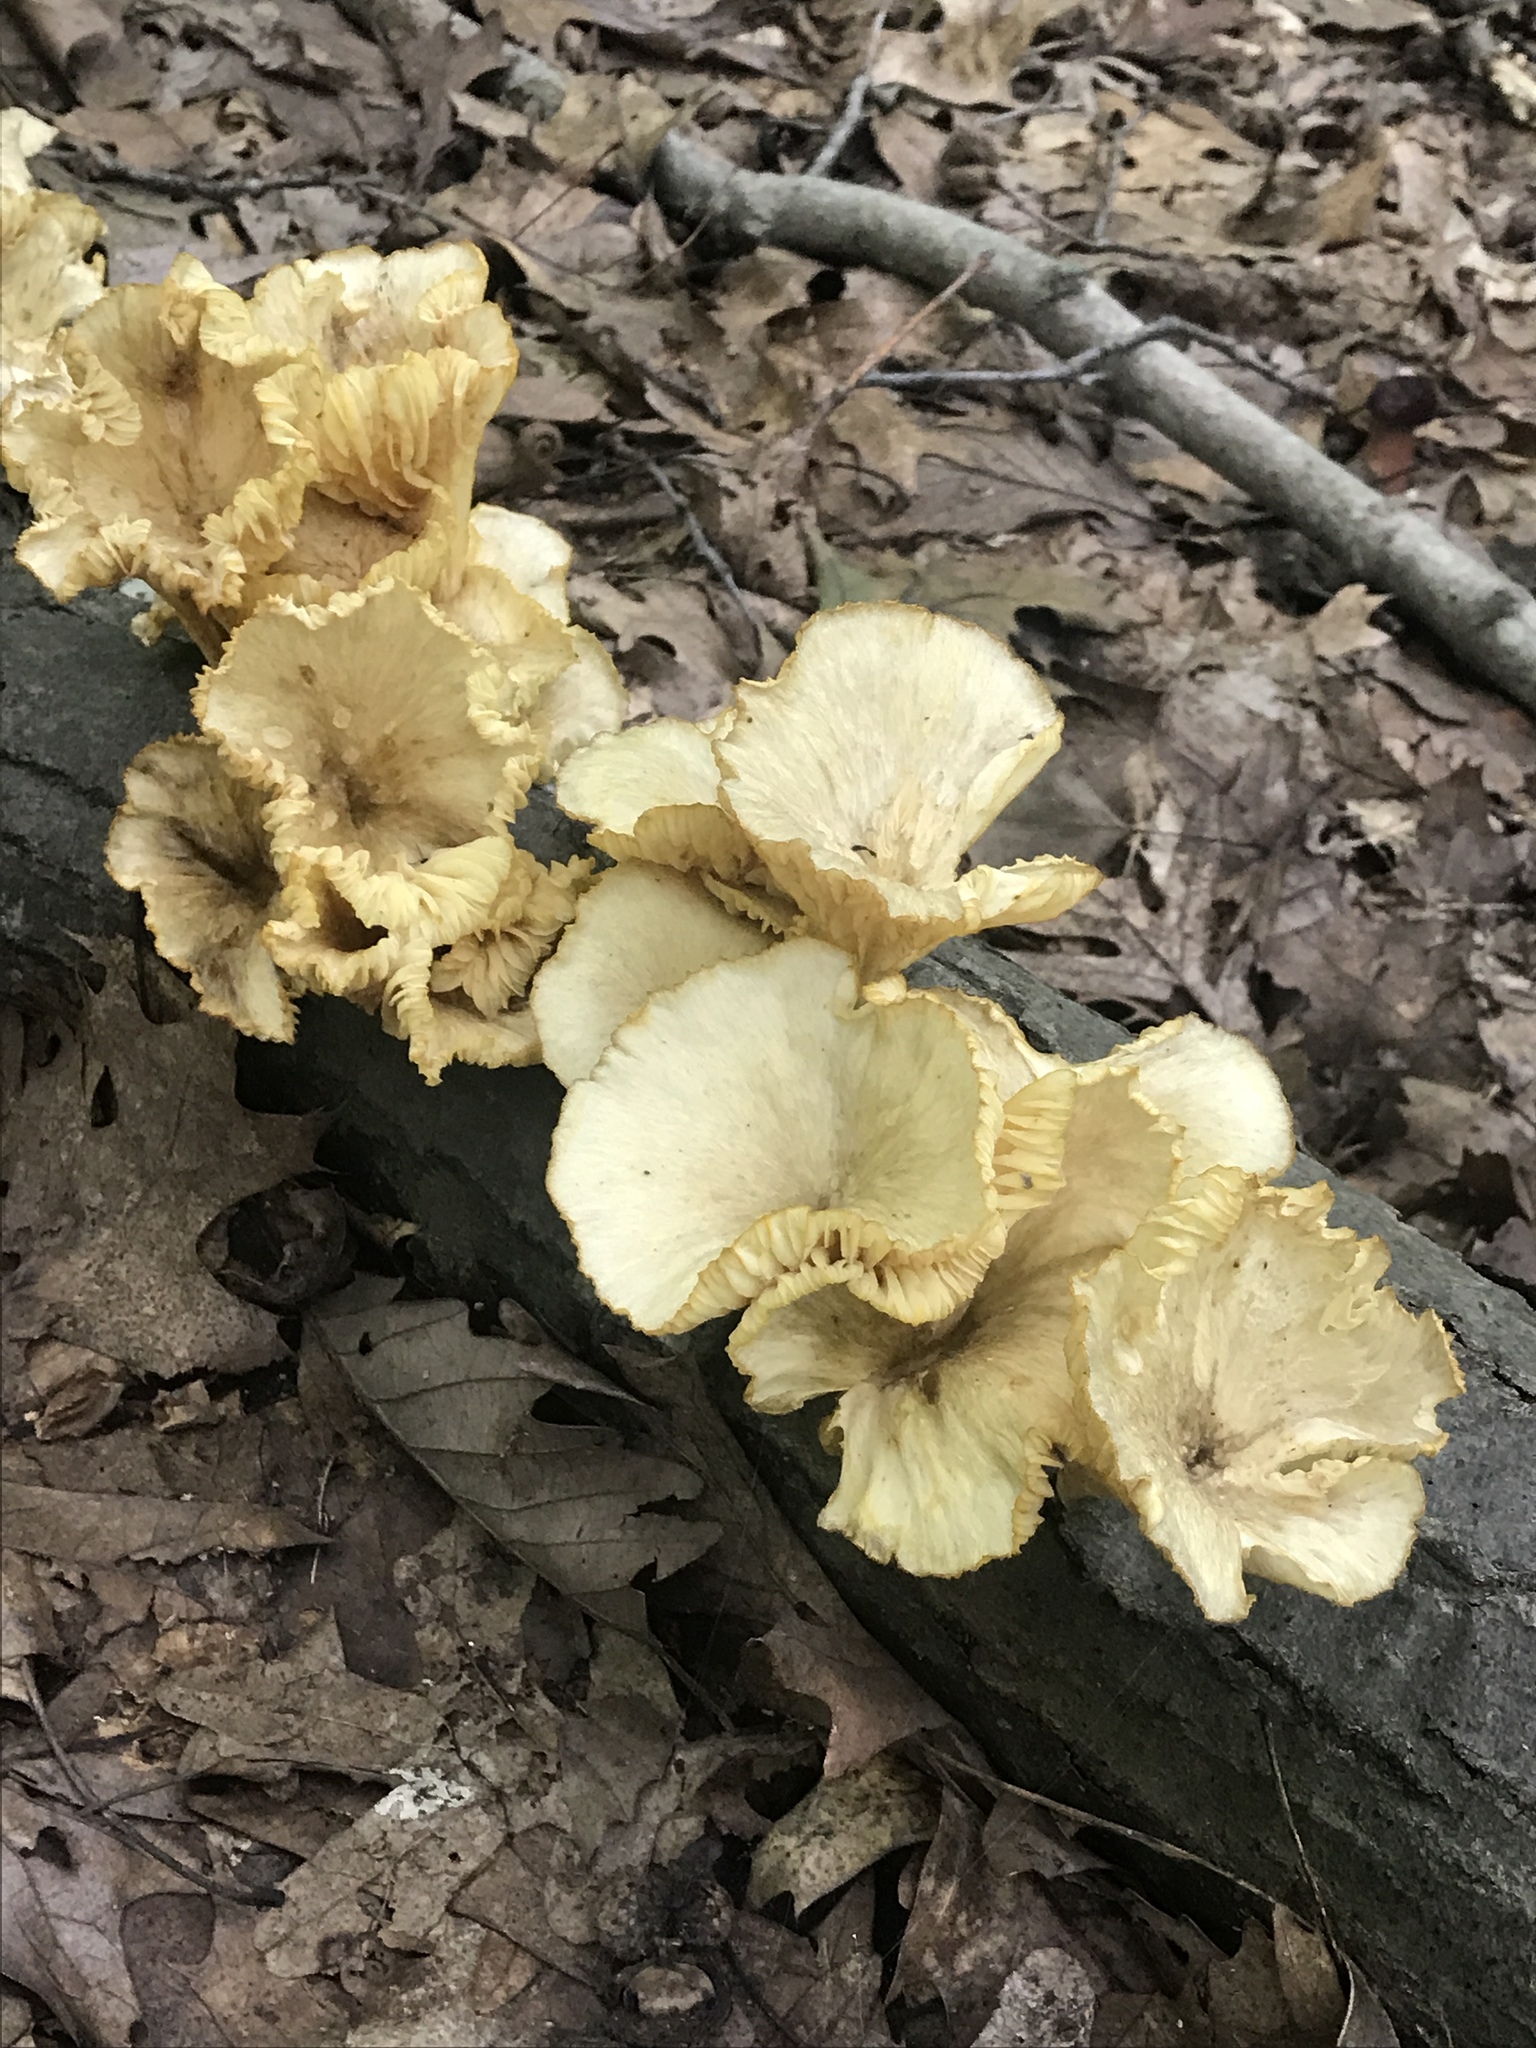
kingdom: Fungi
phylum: Basidiomycota
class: Agaricomycetes
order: Agaricales
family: Marasmiaceae
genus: Gerronema
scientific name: Gerronema strombodes
